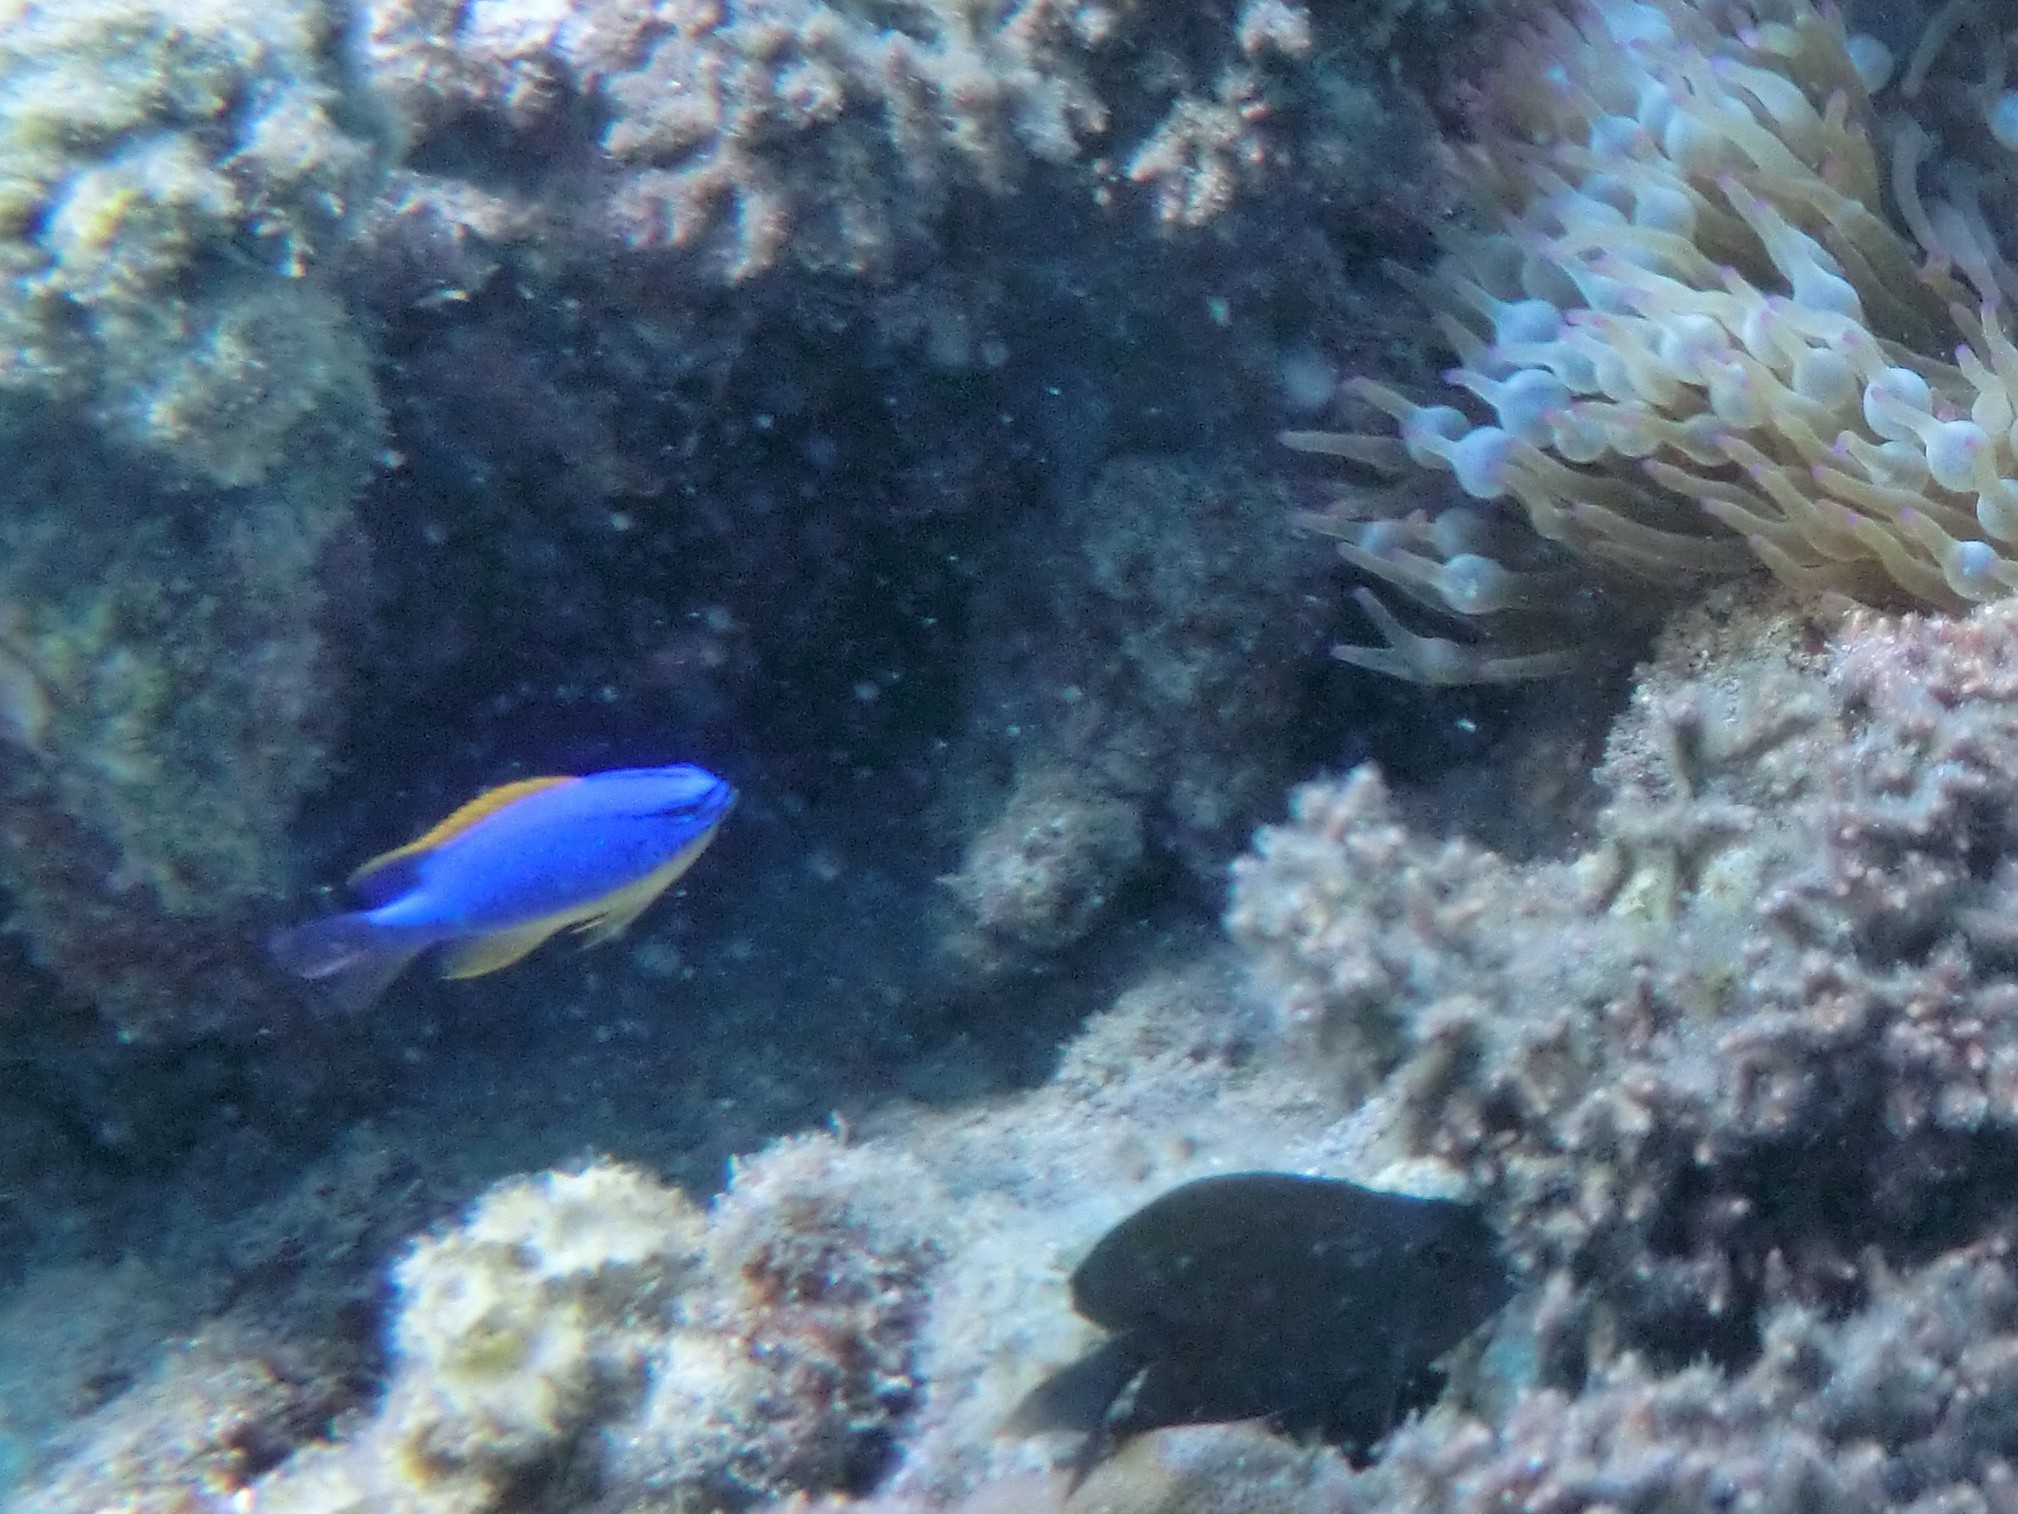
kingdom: Animalia
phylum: Chordata
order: Perciformes
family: Pomacentridae
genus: Chrysiptera
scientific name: Chrysiptera taupou
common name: Fiji damsel
